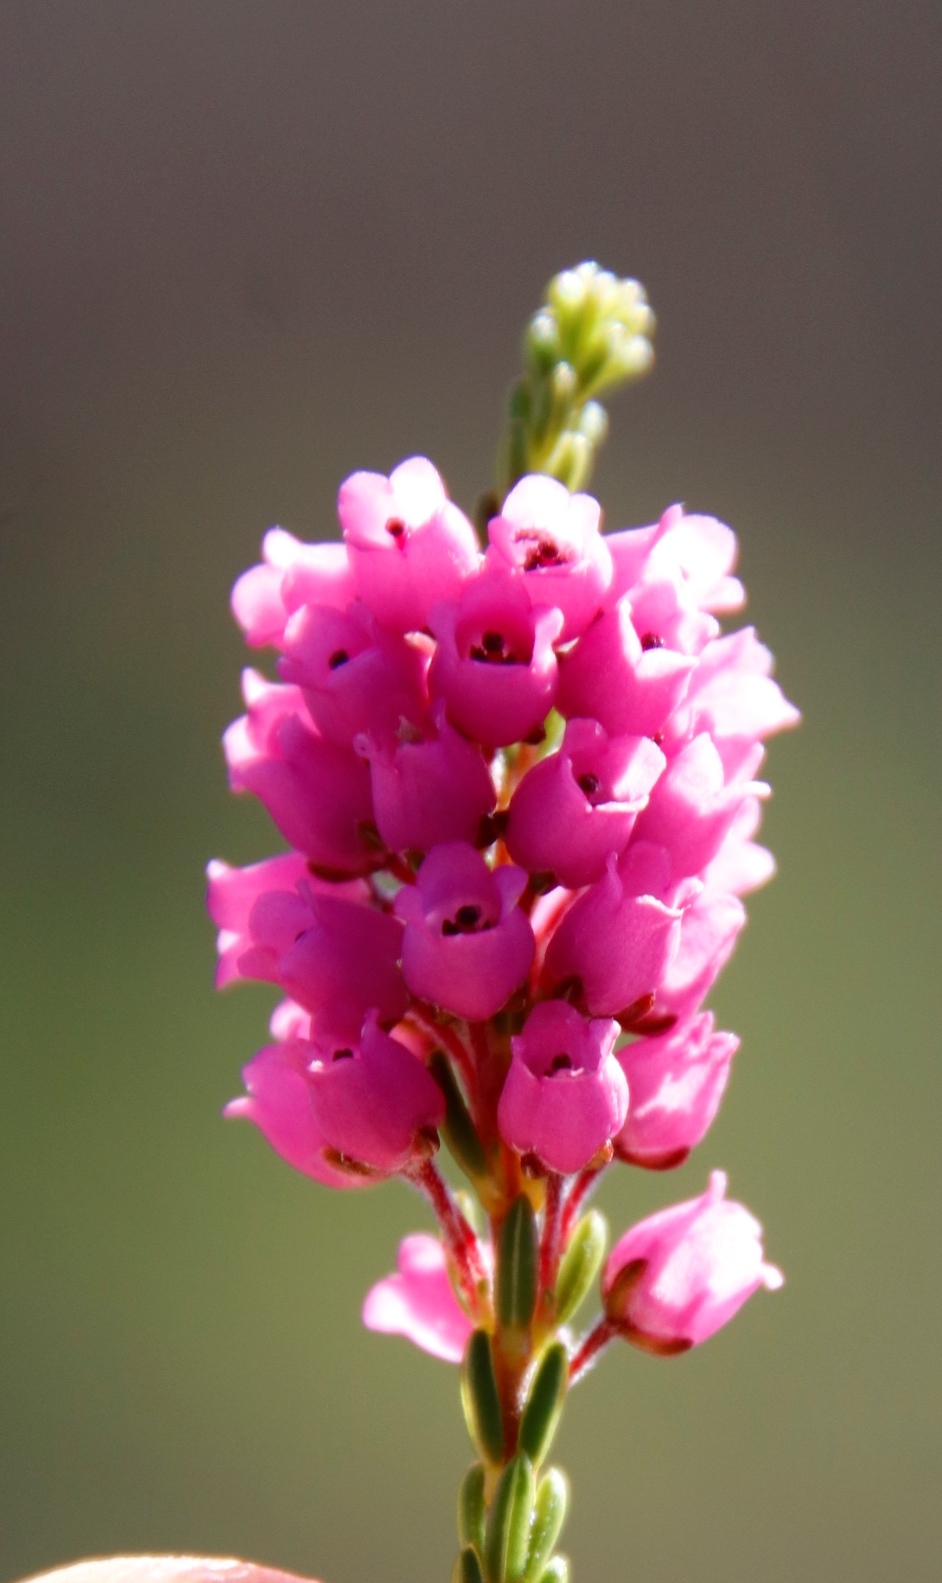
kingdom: Plantae
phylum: Tracheophyta
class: Magnoliopsida
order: Ericales
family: Ericaceae
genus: Erica
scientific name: Erica pulchella
